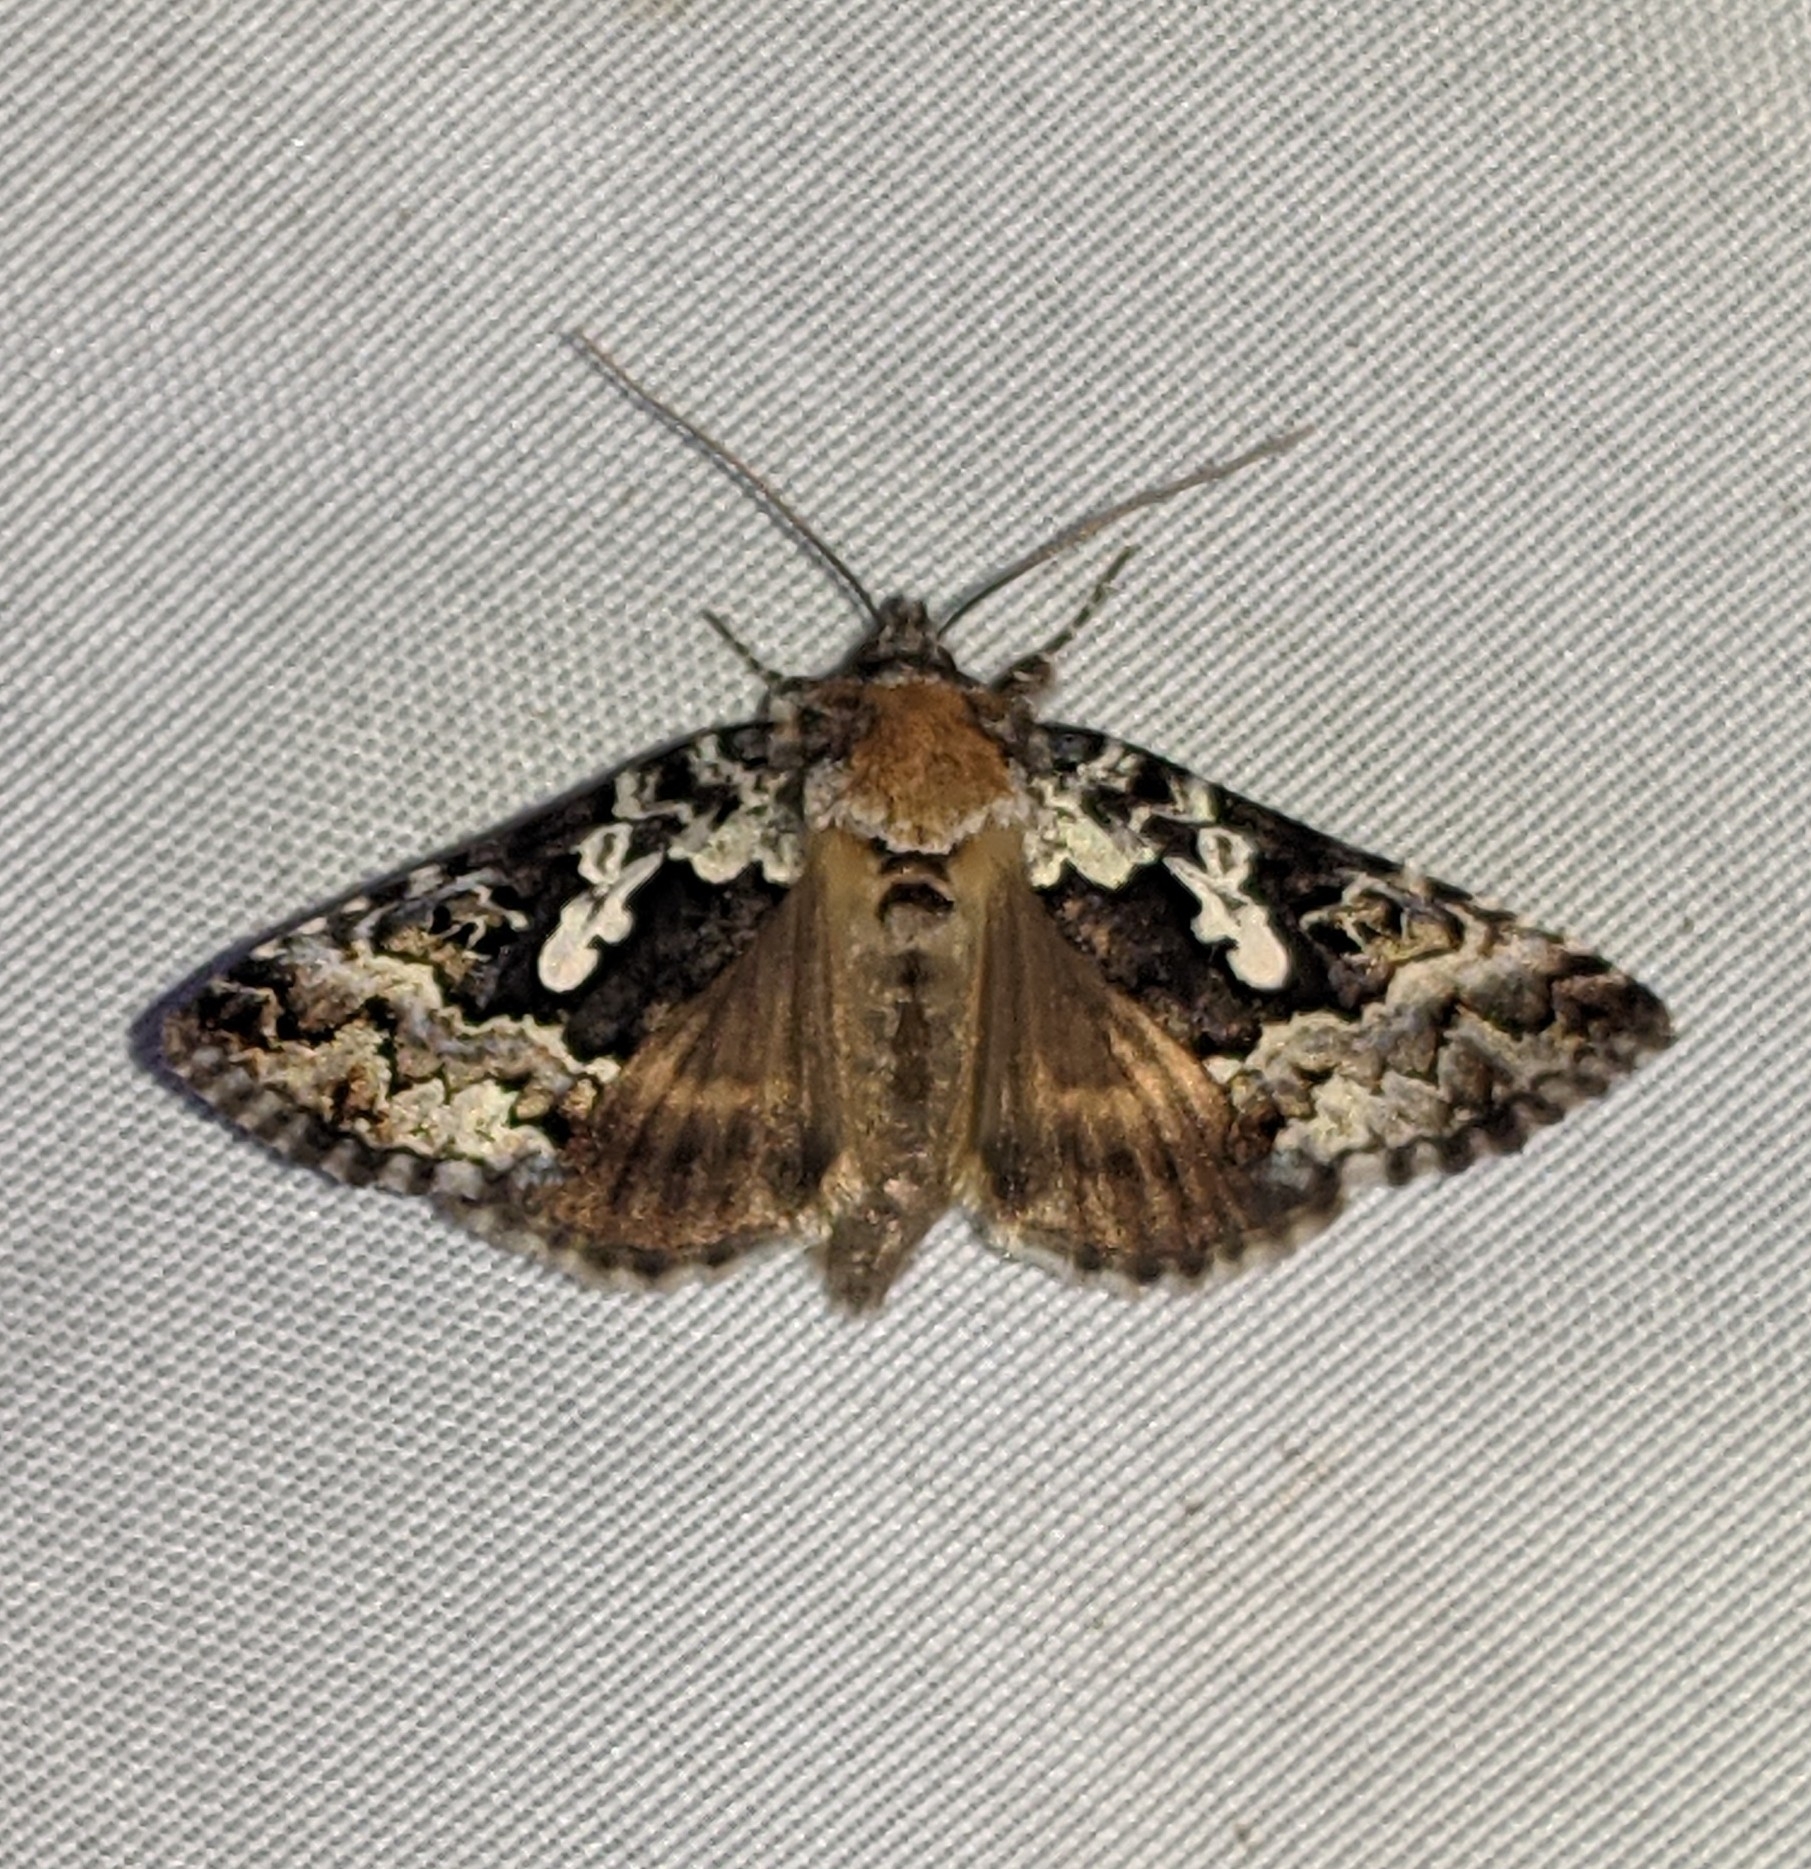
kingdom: Animalia
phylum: Arthropoda
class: Insecta
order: Lepidoptera
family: Noctuidae
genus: Syngrapha
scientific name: Syngrapha rectangula
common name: Angulated cutworm
